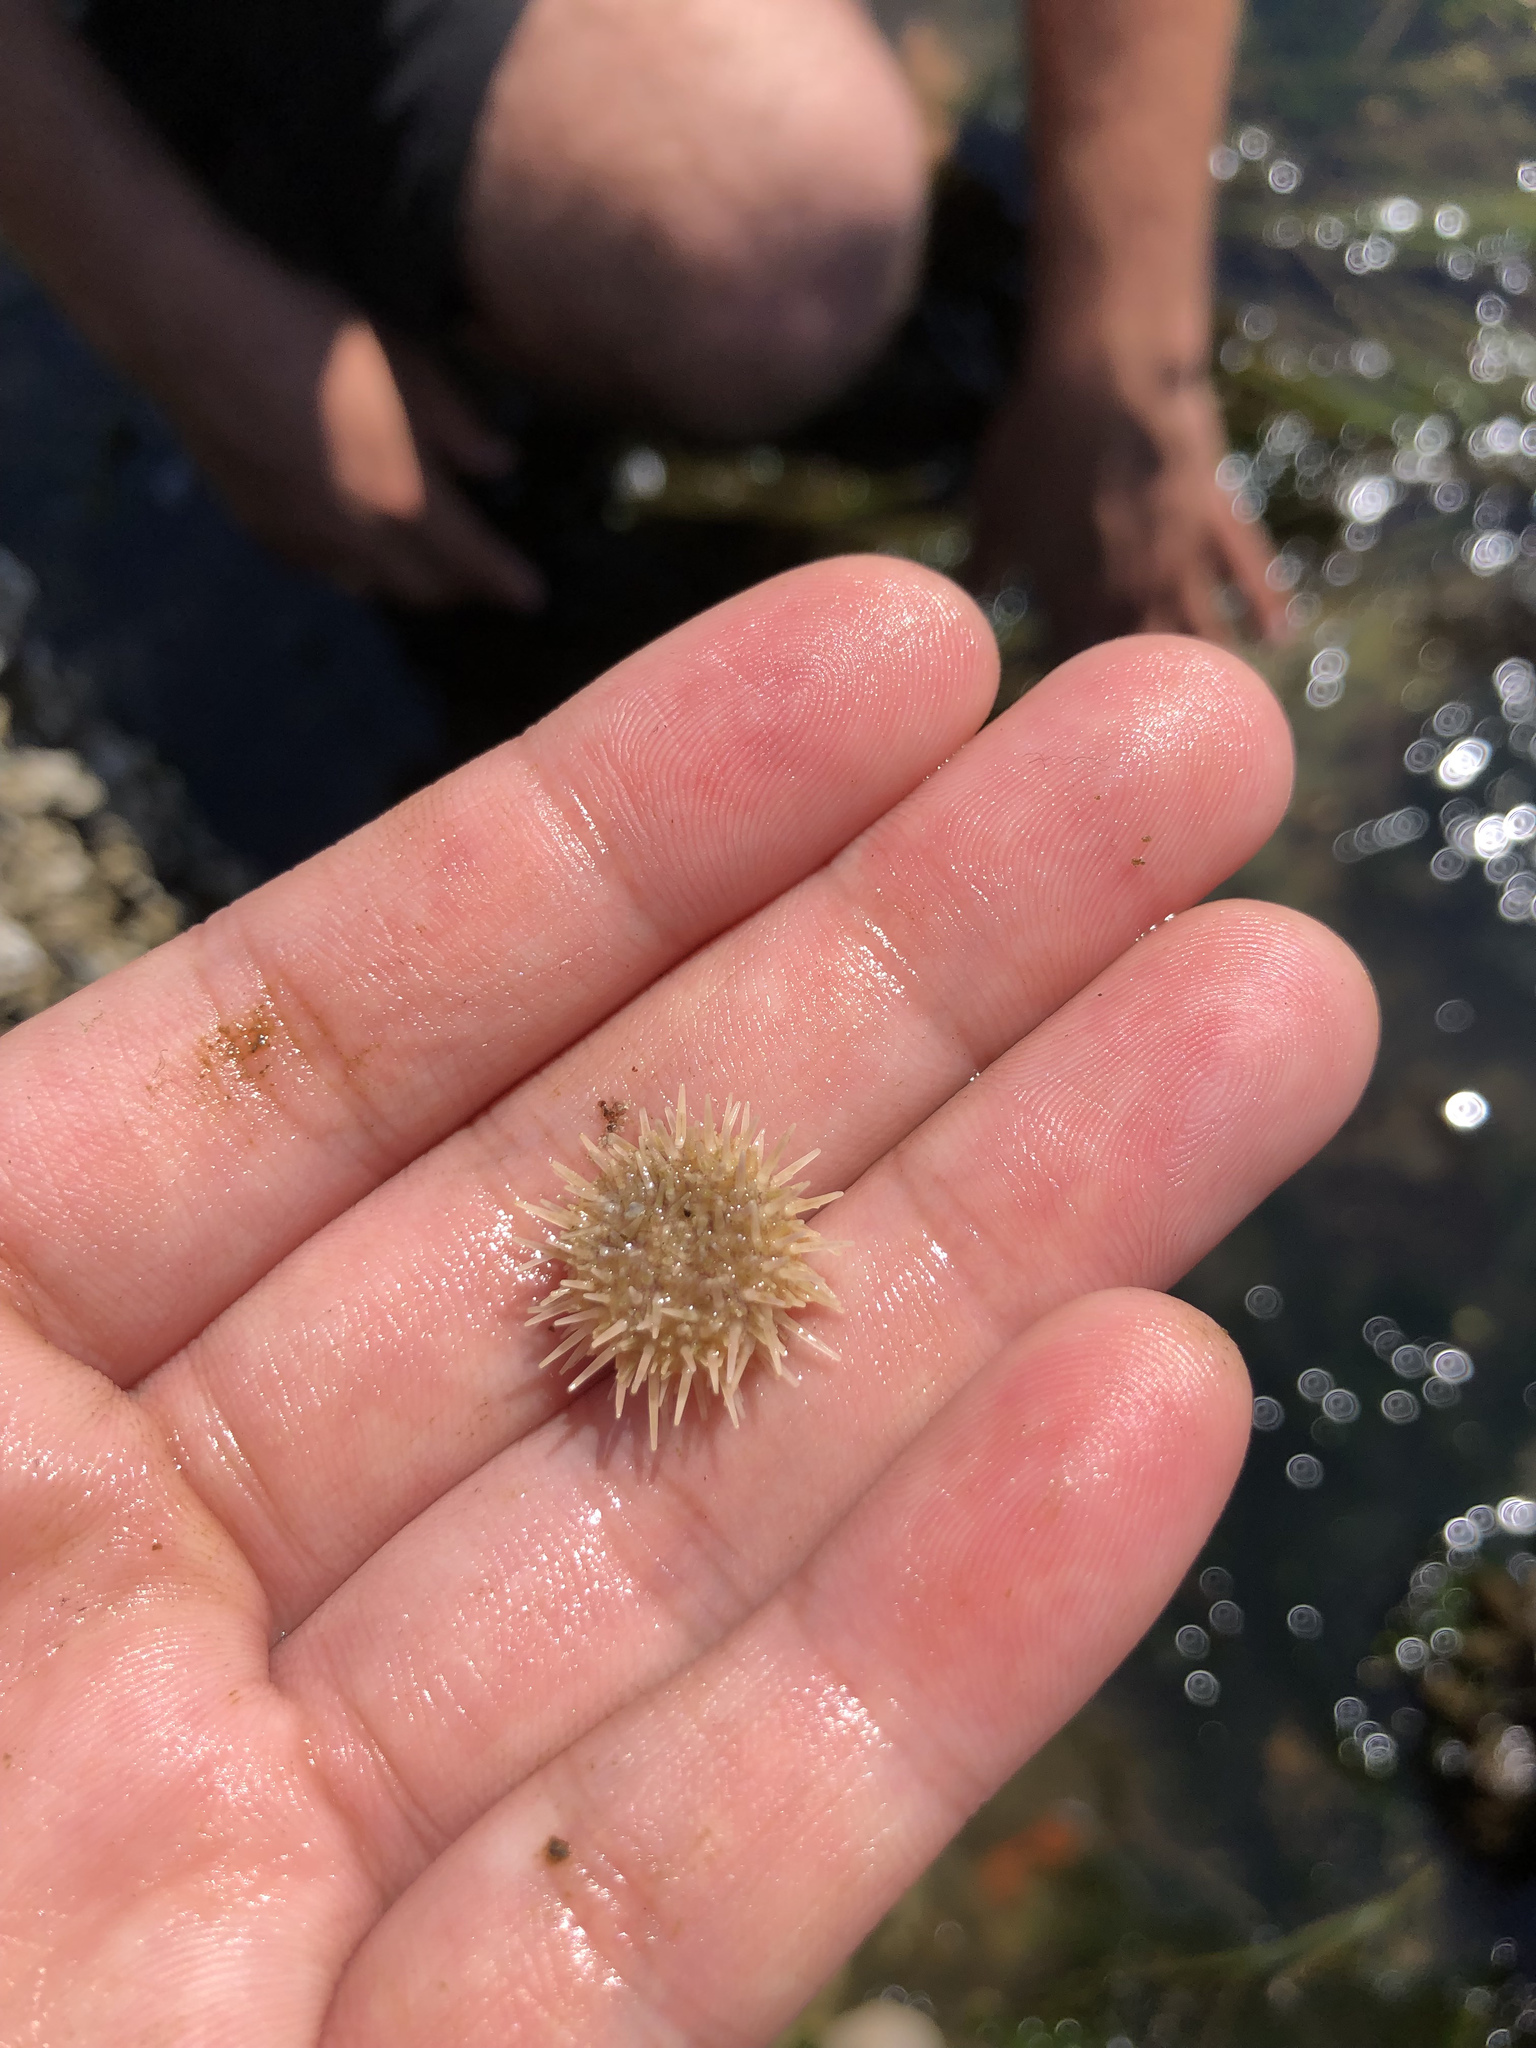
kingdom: Animalia
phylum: Echinodermata
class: Echinoidea
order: Camarodonta
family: Strongylocentrotidae
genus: Strongylocentrotus
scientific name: Strongylocentrotus droebachiensis
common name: Northern sea urchin
